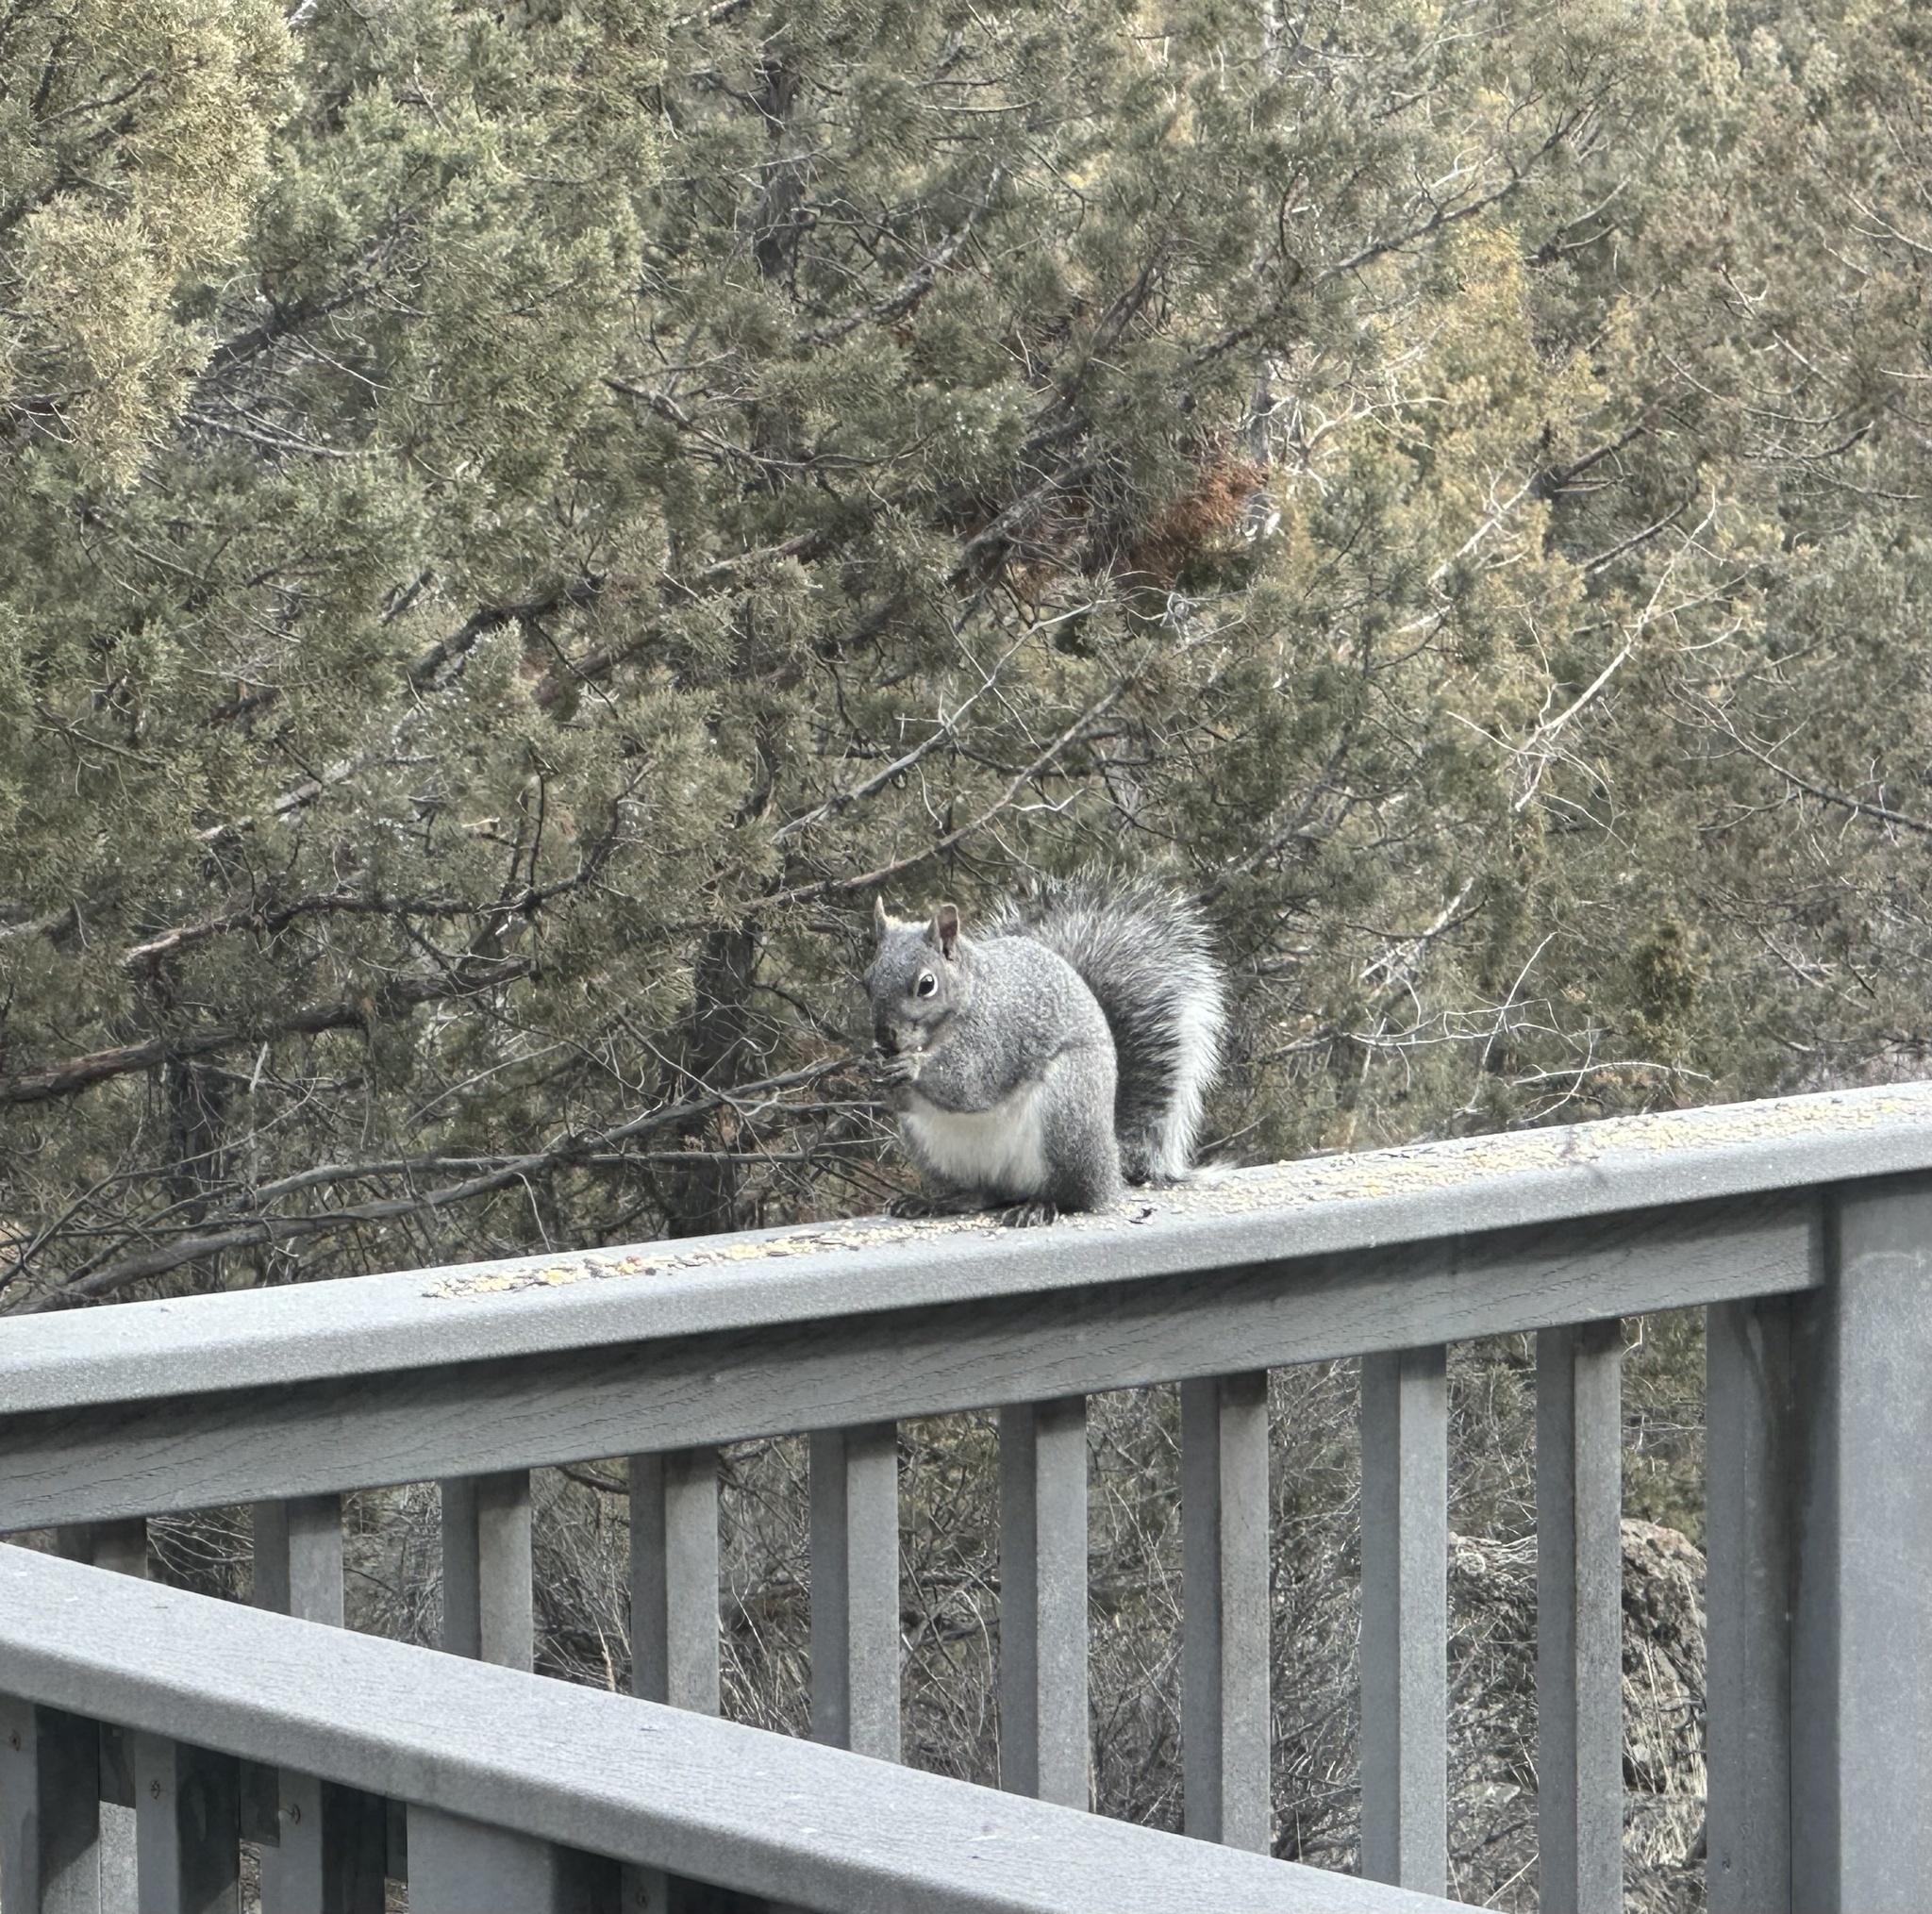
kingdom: Animalia
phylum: Chordata
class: Mammalia
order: Rodentia
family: Sciuridae
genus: Sciurus
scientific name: Sciurus griseus
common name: Western gray squirrel
